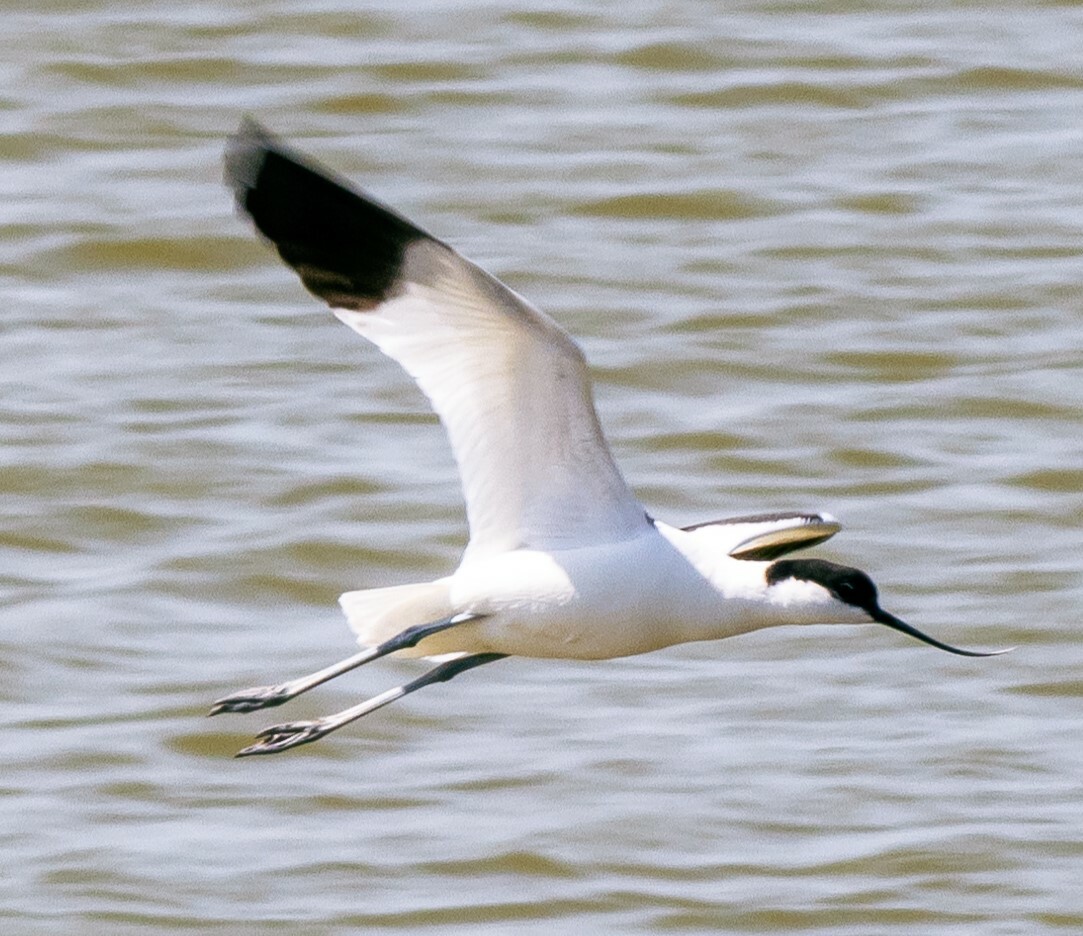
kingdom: Animalia
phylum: Chordata
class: Aves
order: Charadriiformes
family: Recurvirostridae
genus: Recurvirostra
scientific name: Recurvirostra avosetta
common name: Pied avocet
